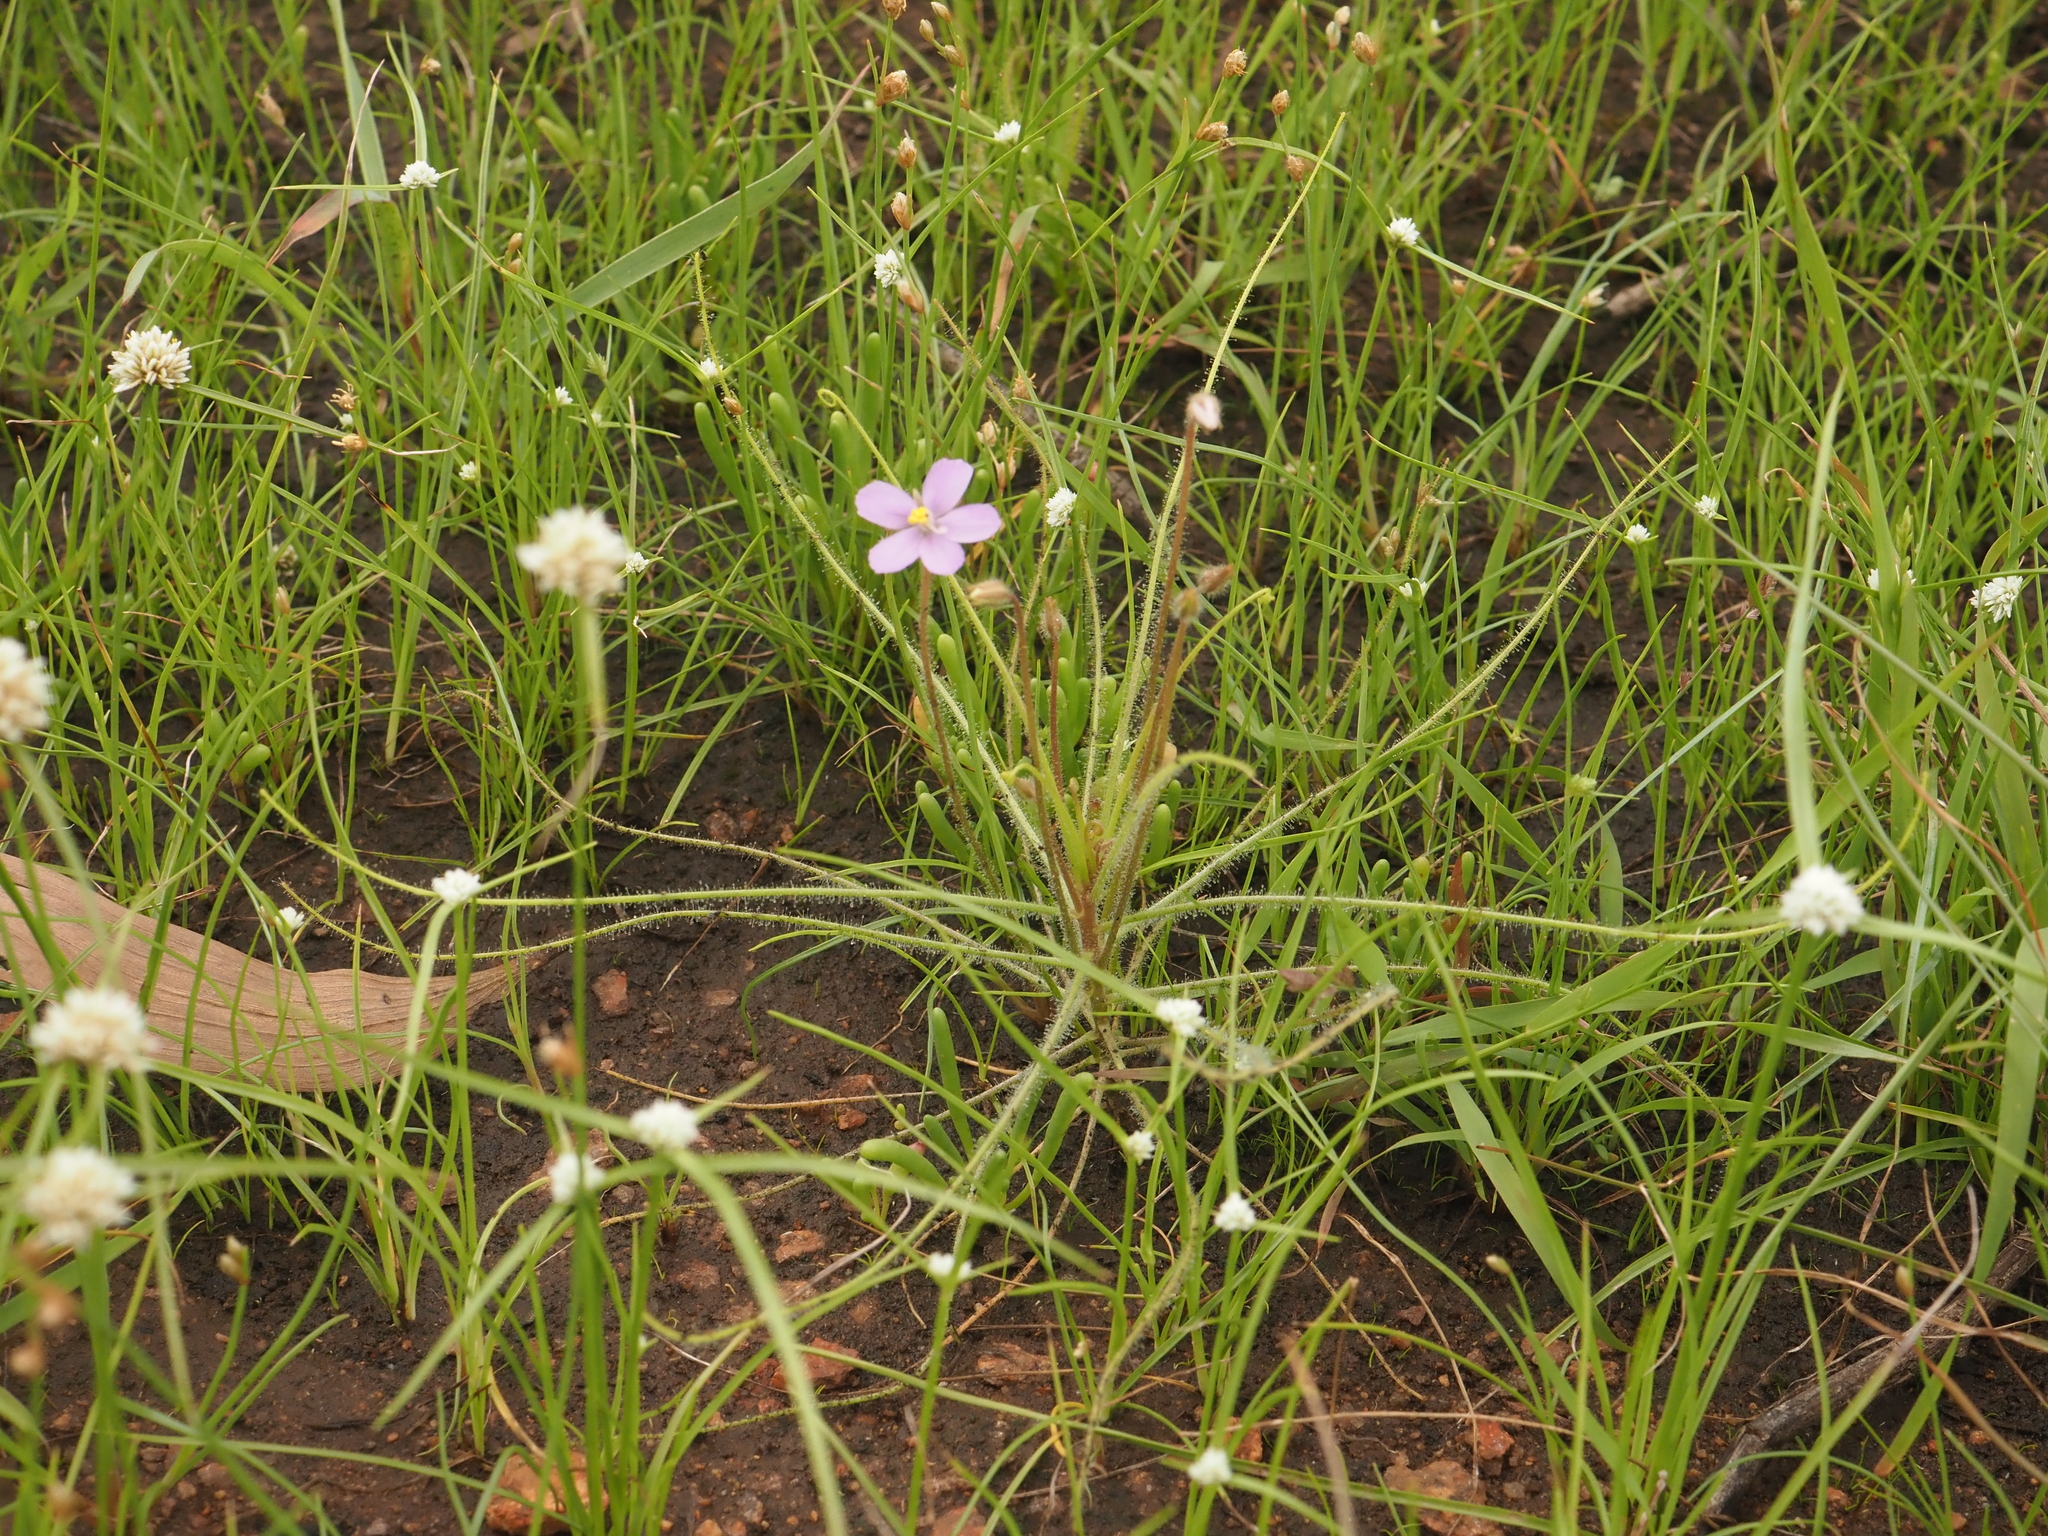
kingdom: Plantae
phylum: Tracheophyta
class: Magnoliopsida
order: Lamiales
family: Byblidaceae
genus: Byblis
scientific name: Byblis pilbarana
